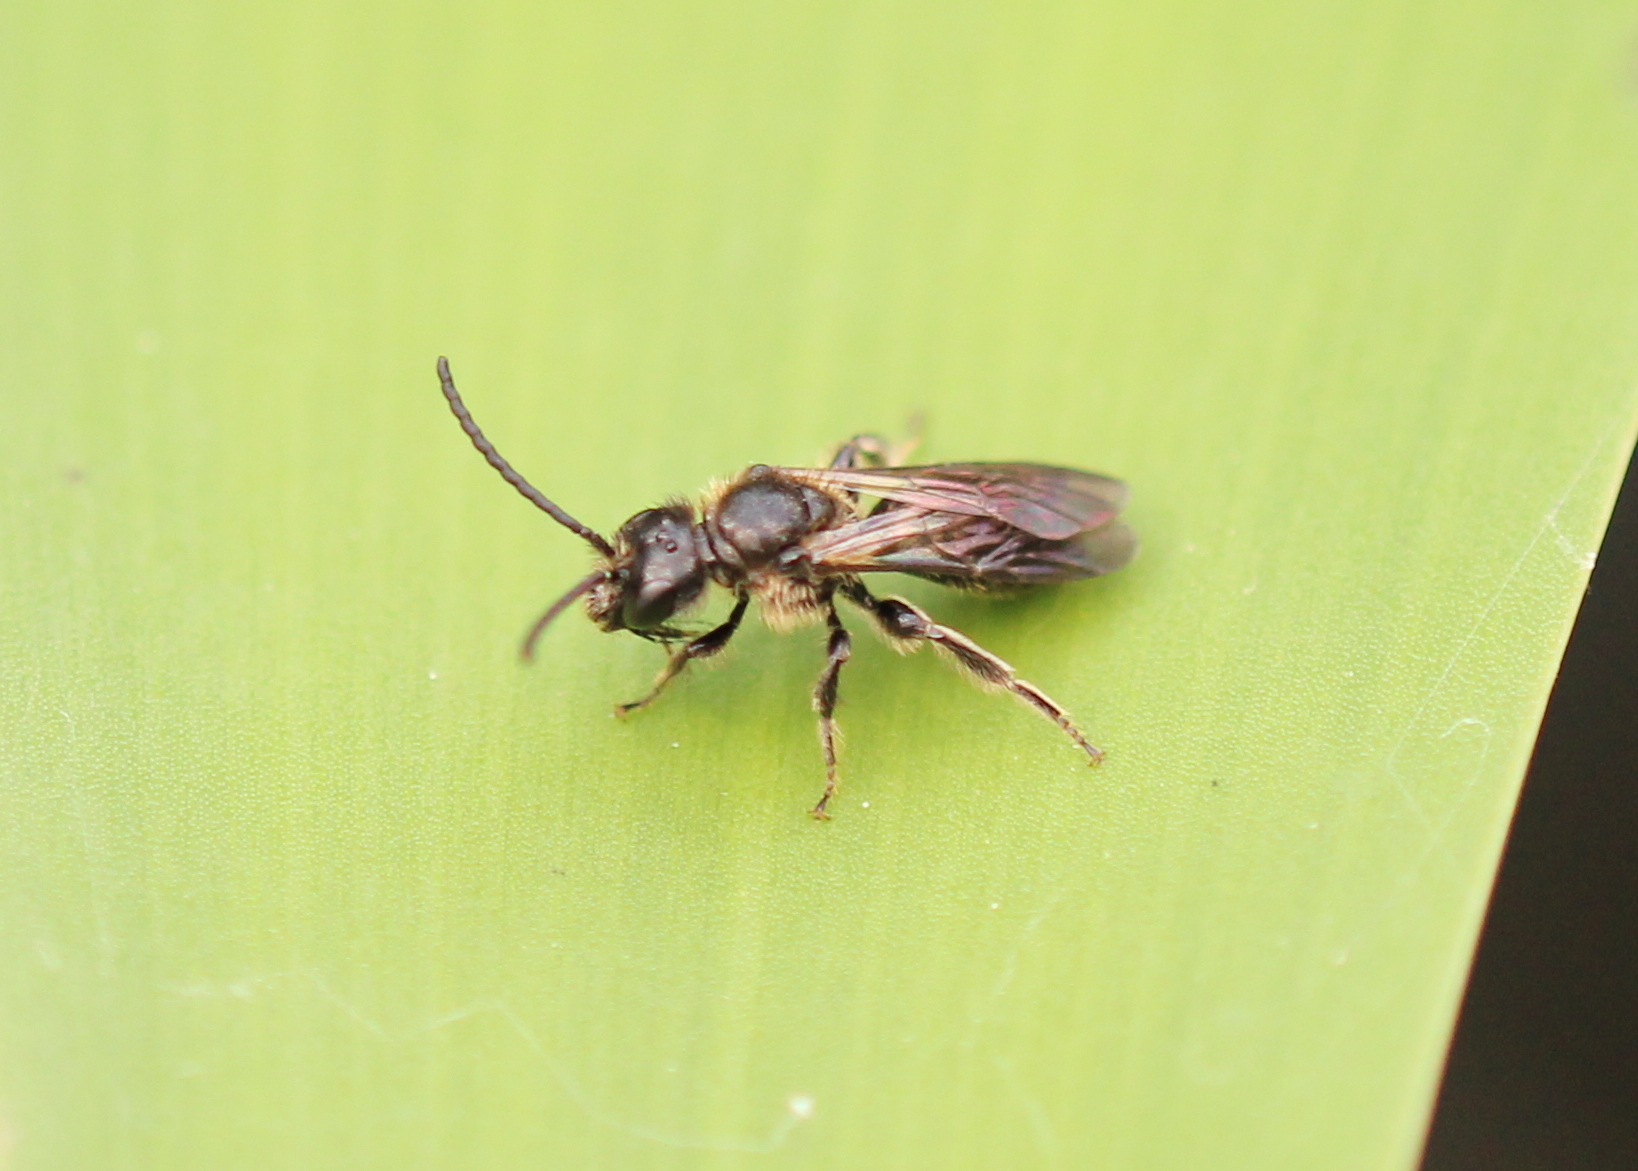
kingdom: Animalia
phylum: Arthropoda
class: Insecta
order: Hymenoptera
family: Halictidae
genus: Dufourea
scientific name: Dufourea novaeangliae
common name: Pickerelweed shortface
